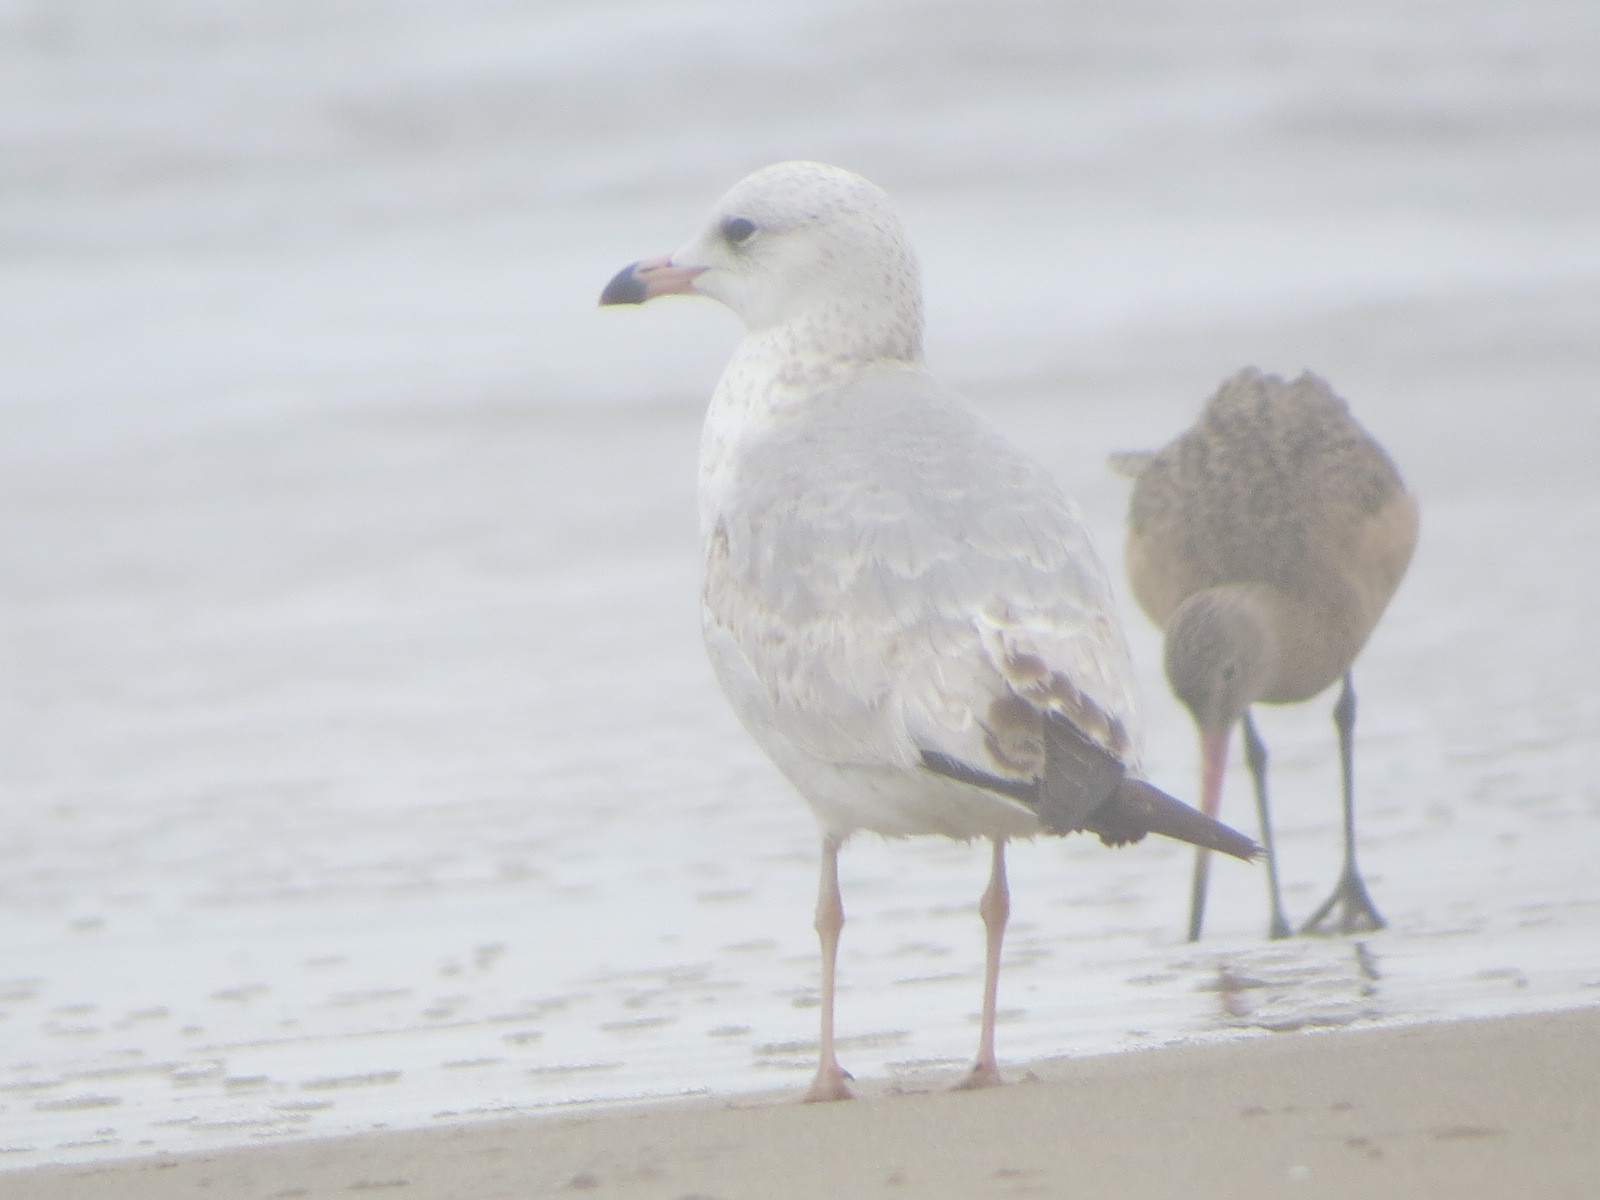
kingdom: Animalia
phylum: Chordata
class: Aves
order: Charadriiformes
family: Laridae
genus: Larus
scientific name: Larus delawarensis
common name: Ring-billed gull
